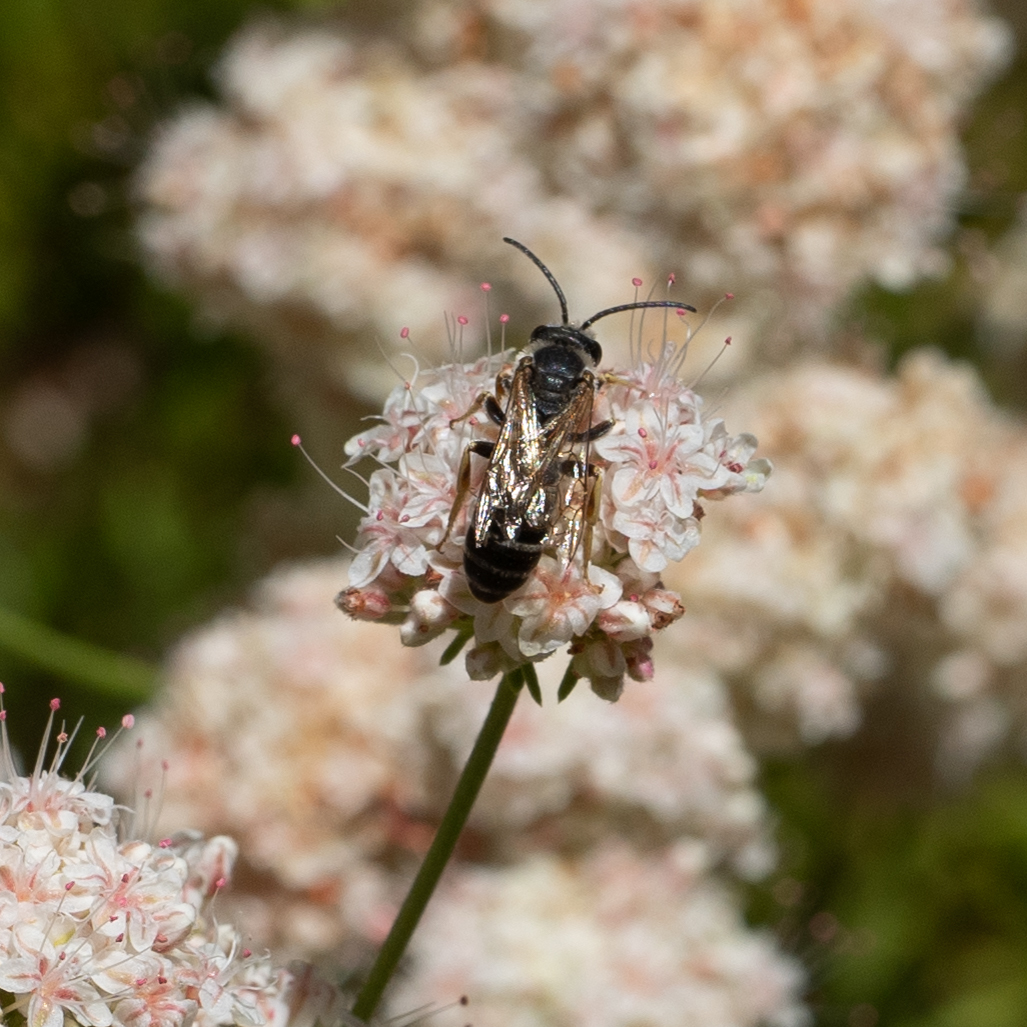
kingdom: Animalia
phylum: Arthropoda
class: Insecta
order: Hymenoptera
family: Halictidae
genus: Halictus
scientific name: Halictus farinosus
